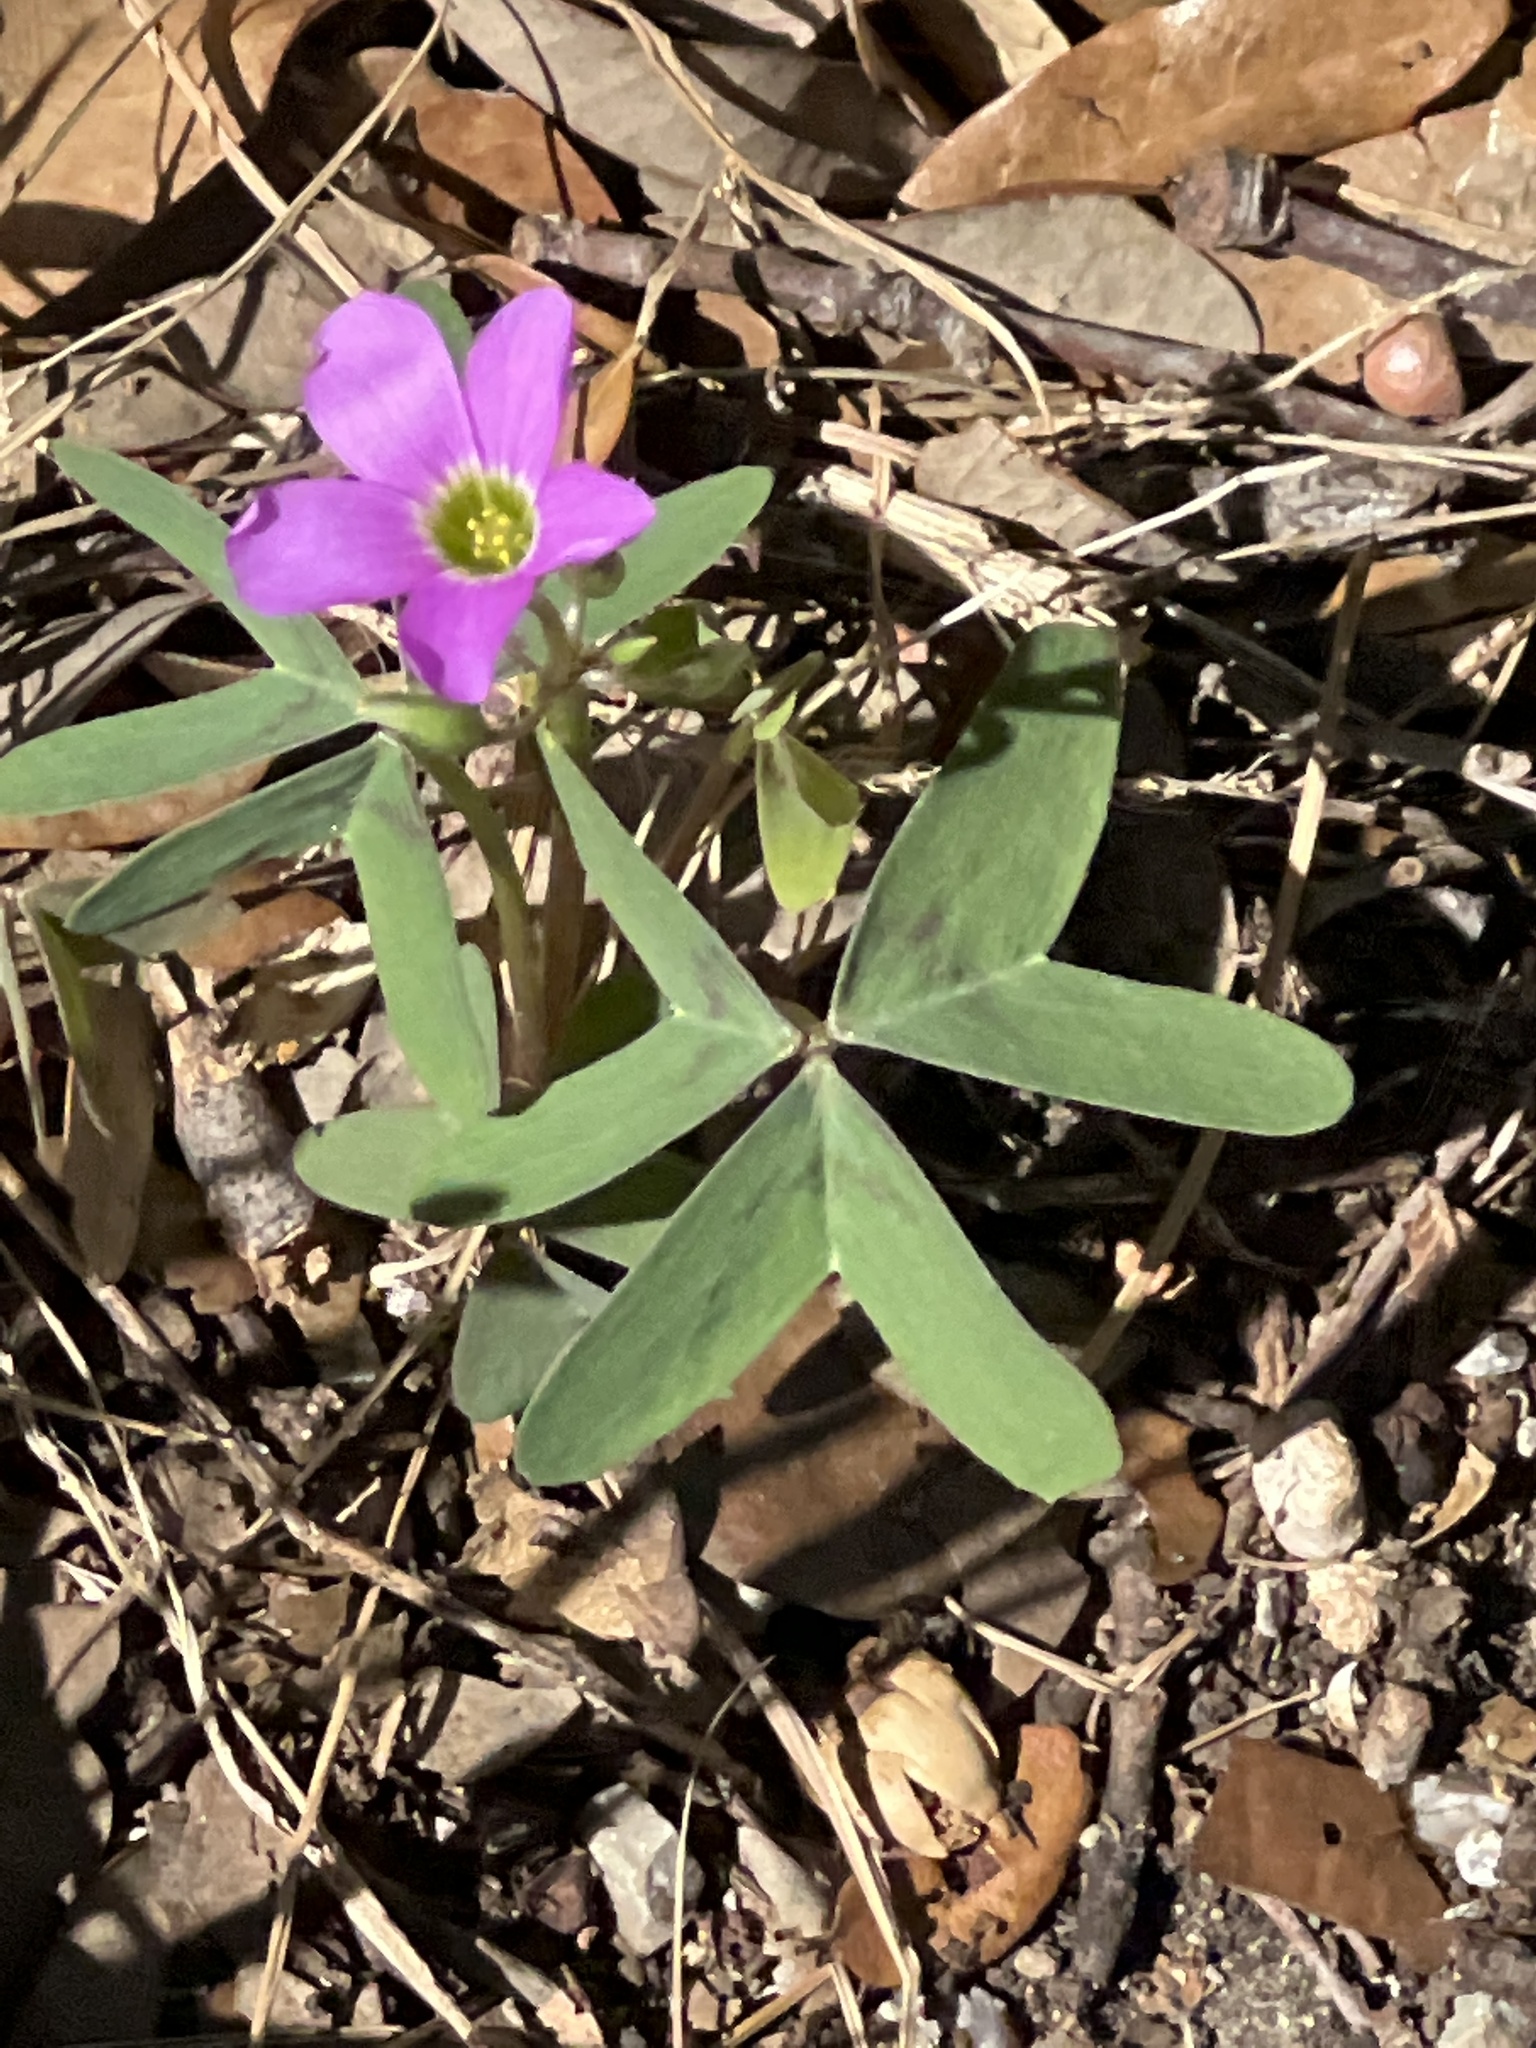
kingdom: Plantae
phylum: Tracheophyta
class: Magnoliopsida
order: Oxalidales
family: Oxalidaceae
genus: Oxalis
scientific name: Oxalis drummondii
